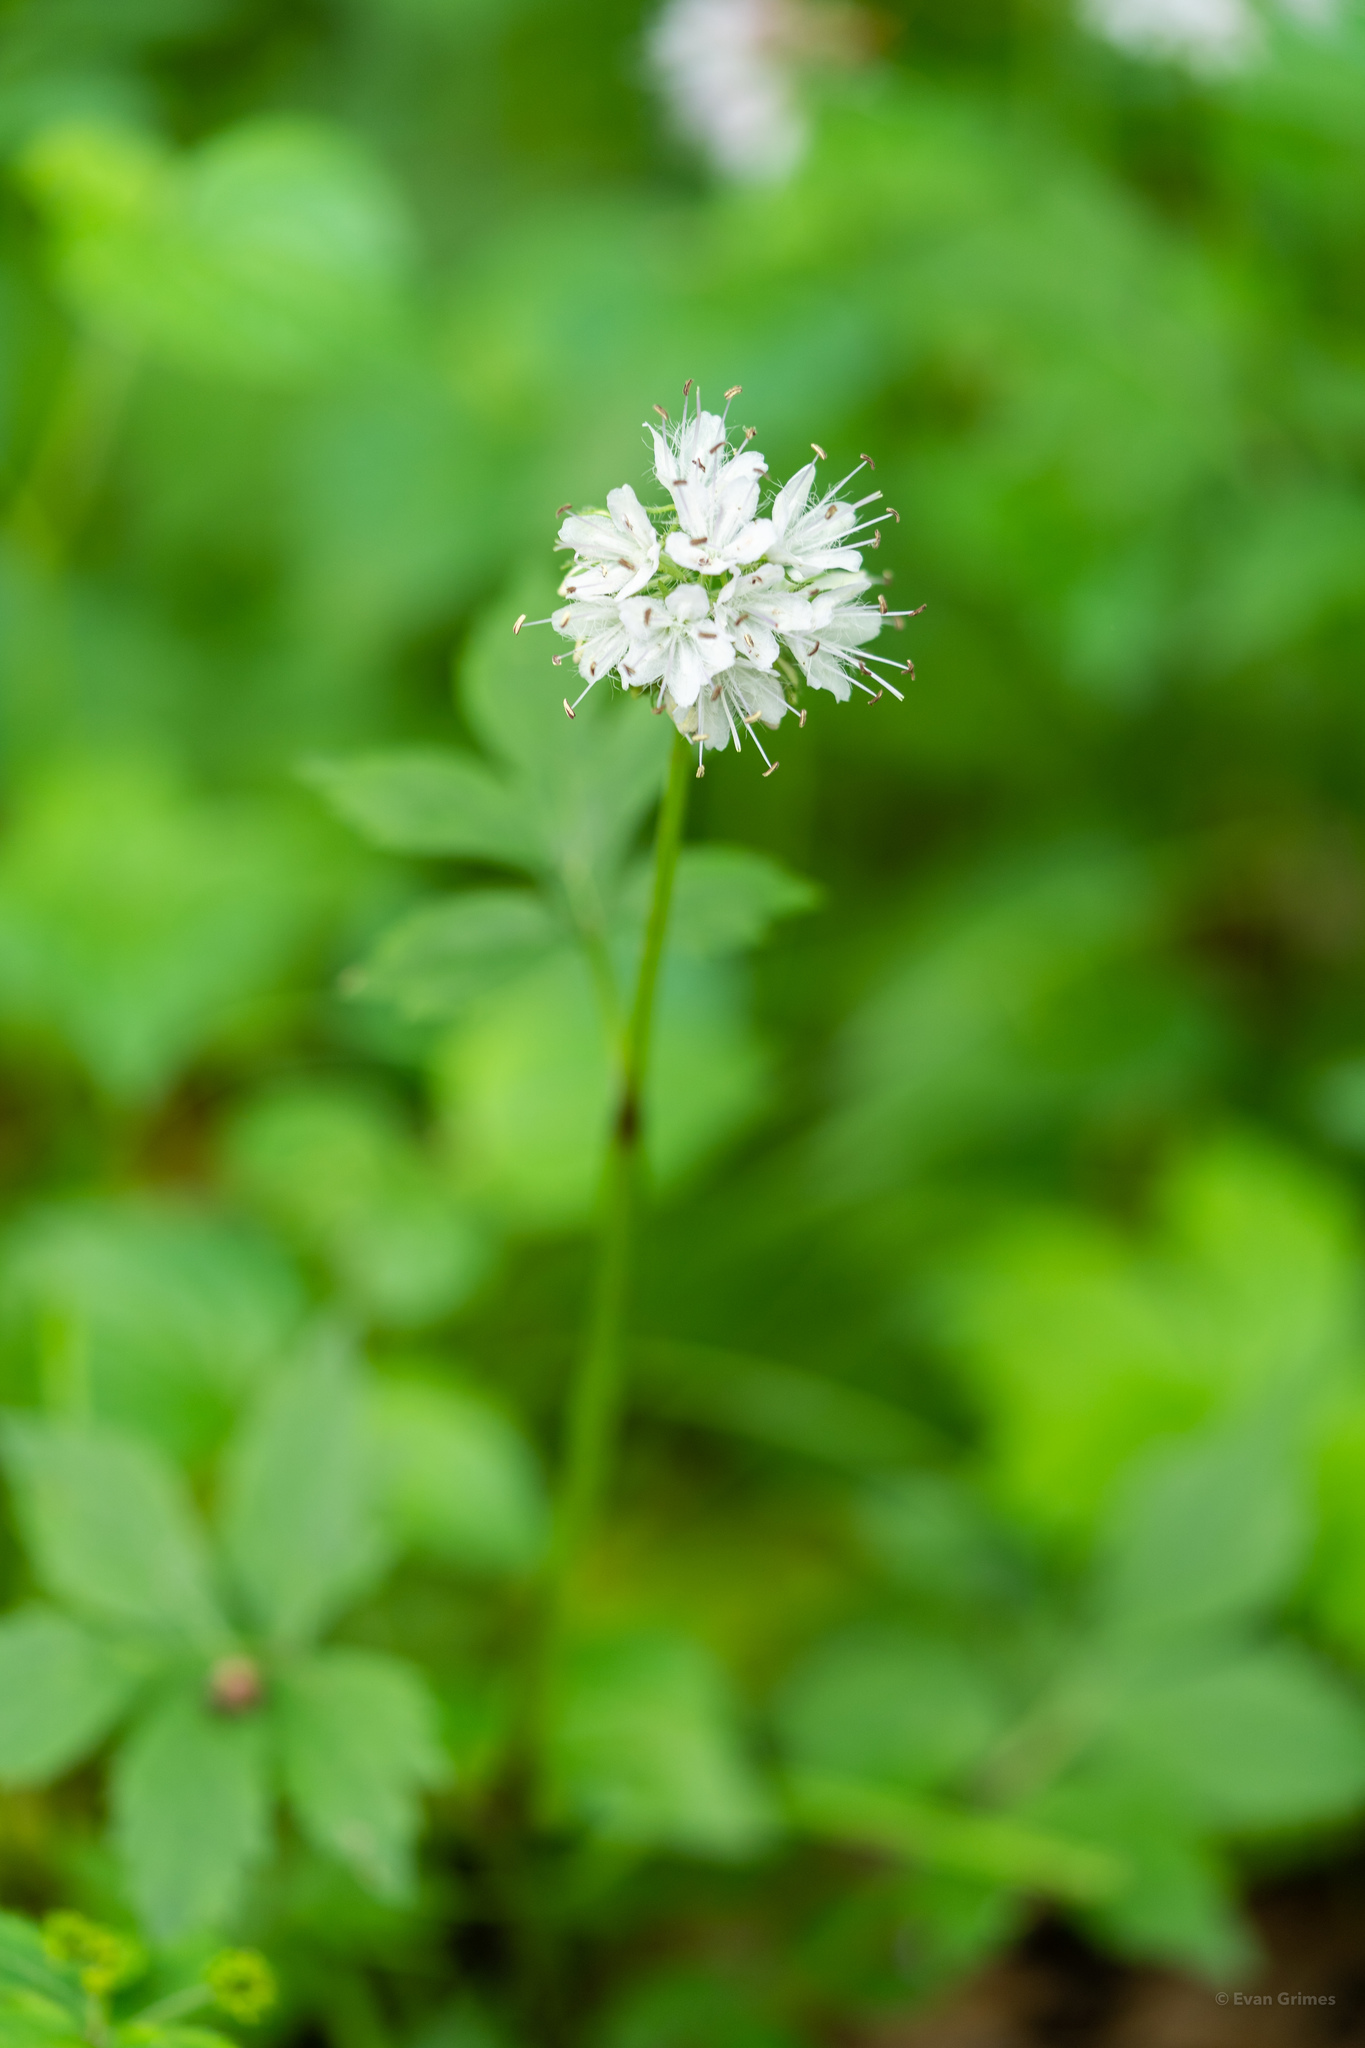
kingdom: Plantae
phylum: Tracheophyta
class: Magnoliopsida
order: Boraginales
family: Hydrophyllaceae
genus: Hydrophyllum
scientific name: Hydrophyllum virginianum
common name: Virginia waterleaf
